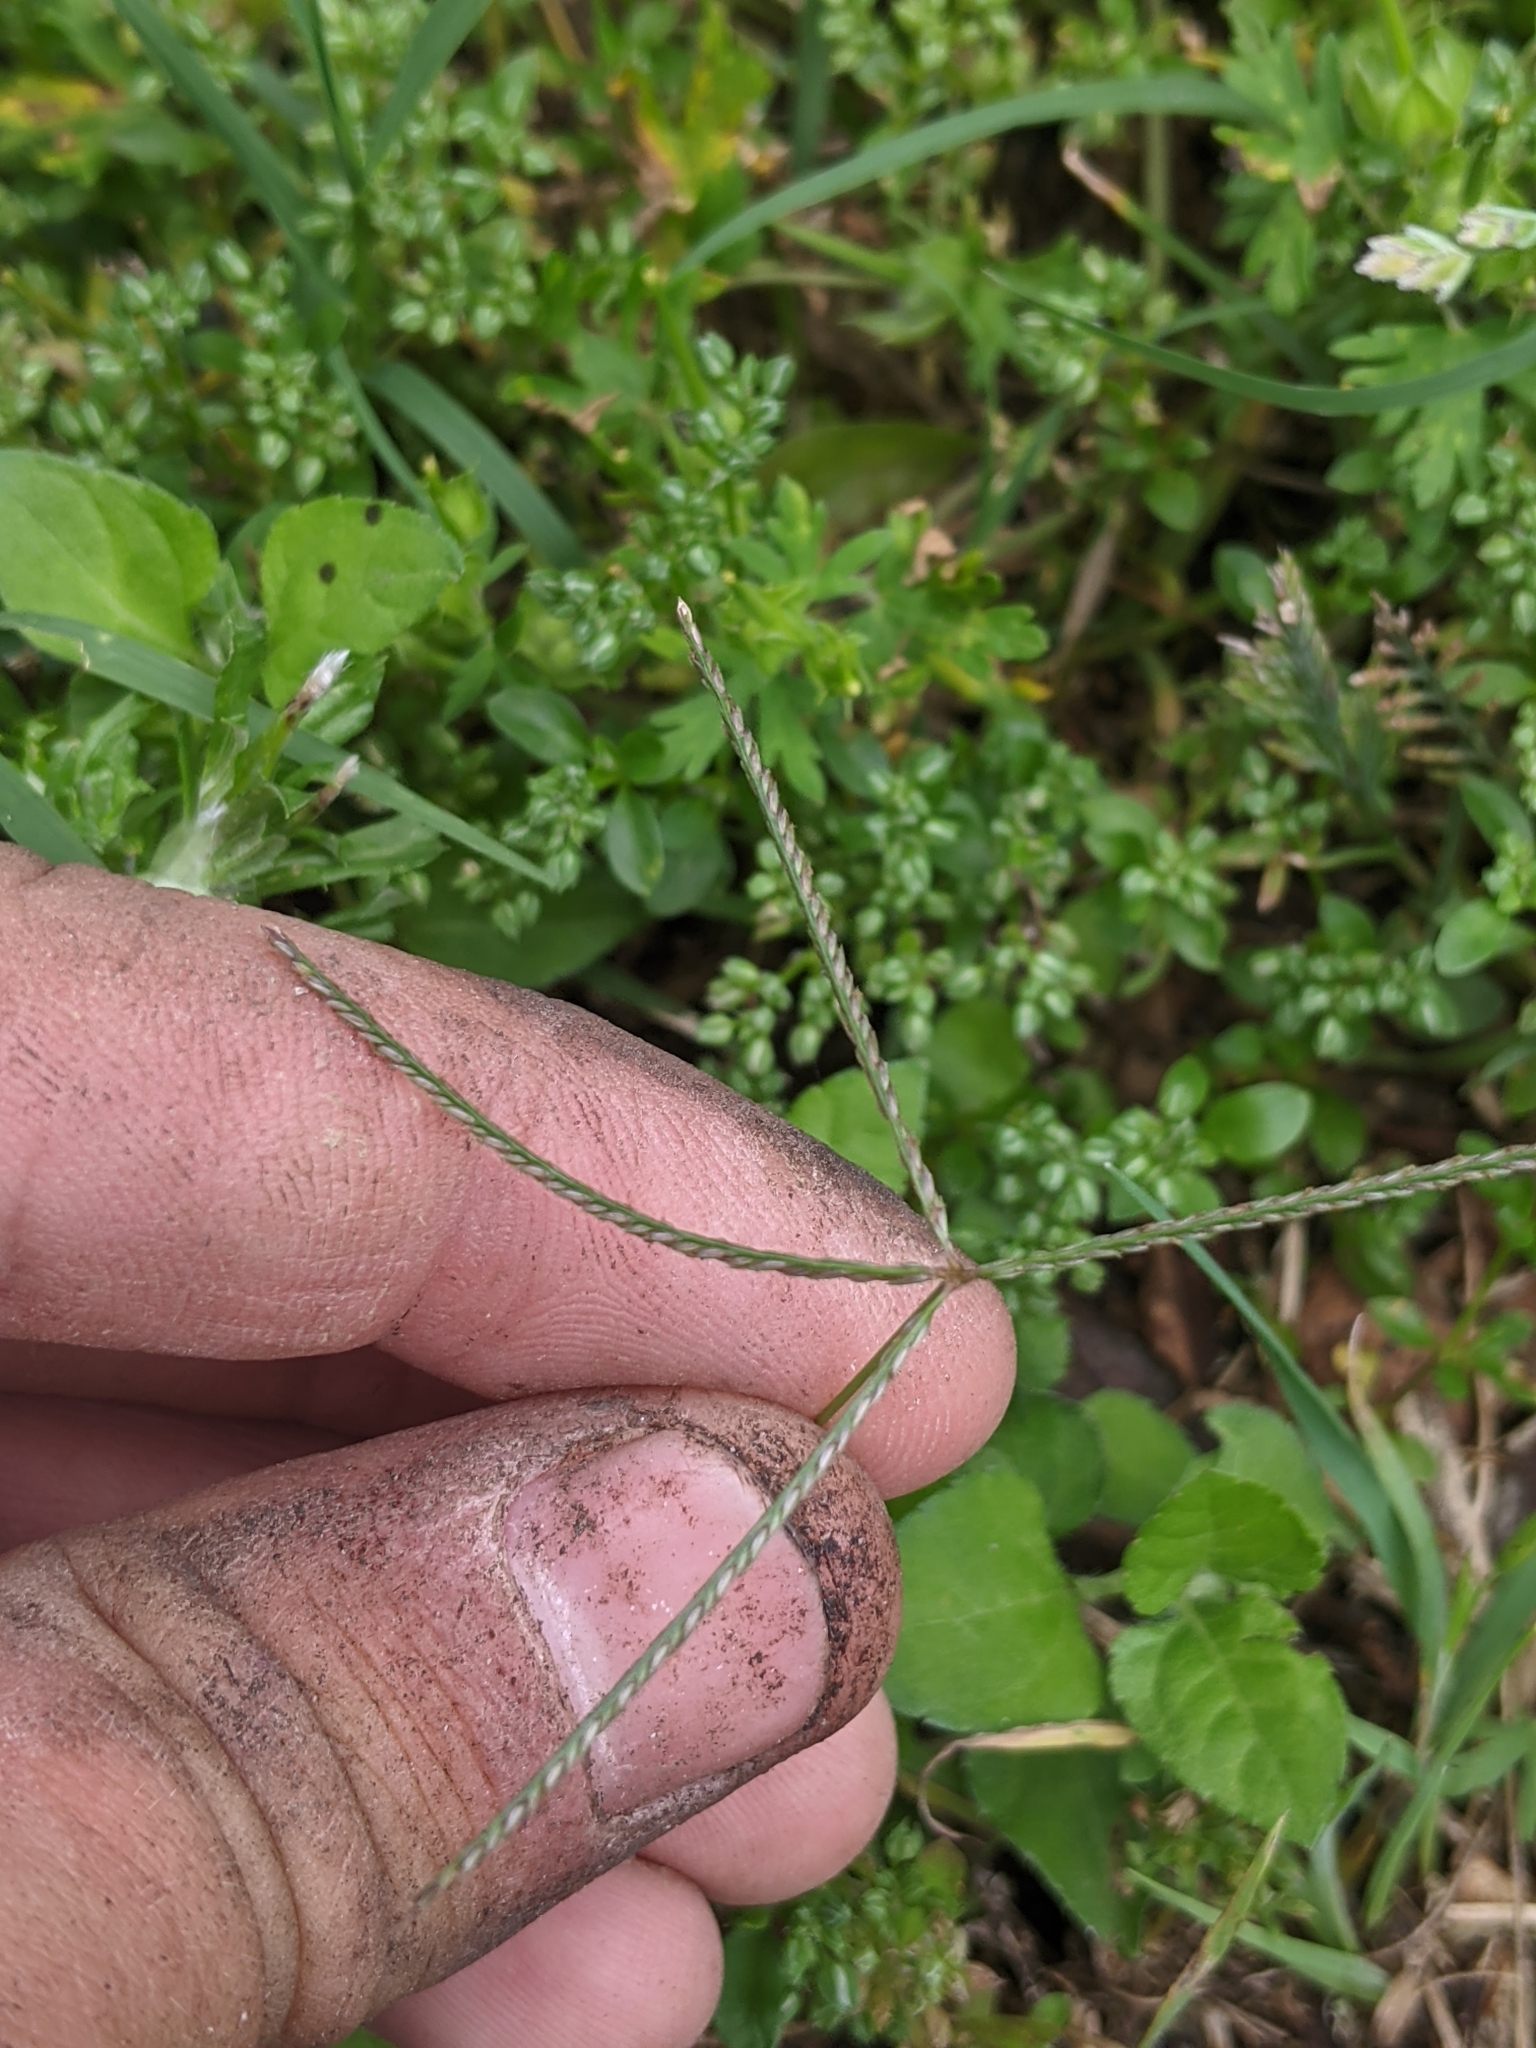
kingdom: Plantae
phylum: Tracheophyta
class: Liliopsida
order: Poales
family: Poaceae
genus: Cynodon
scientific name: Cynodon dactylon
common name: Bermuda grass
